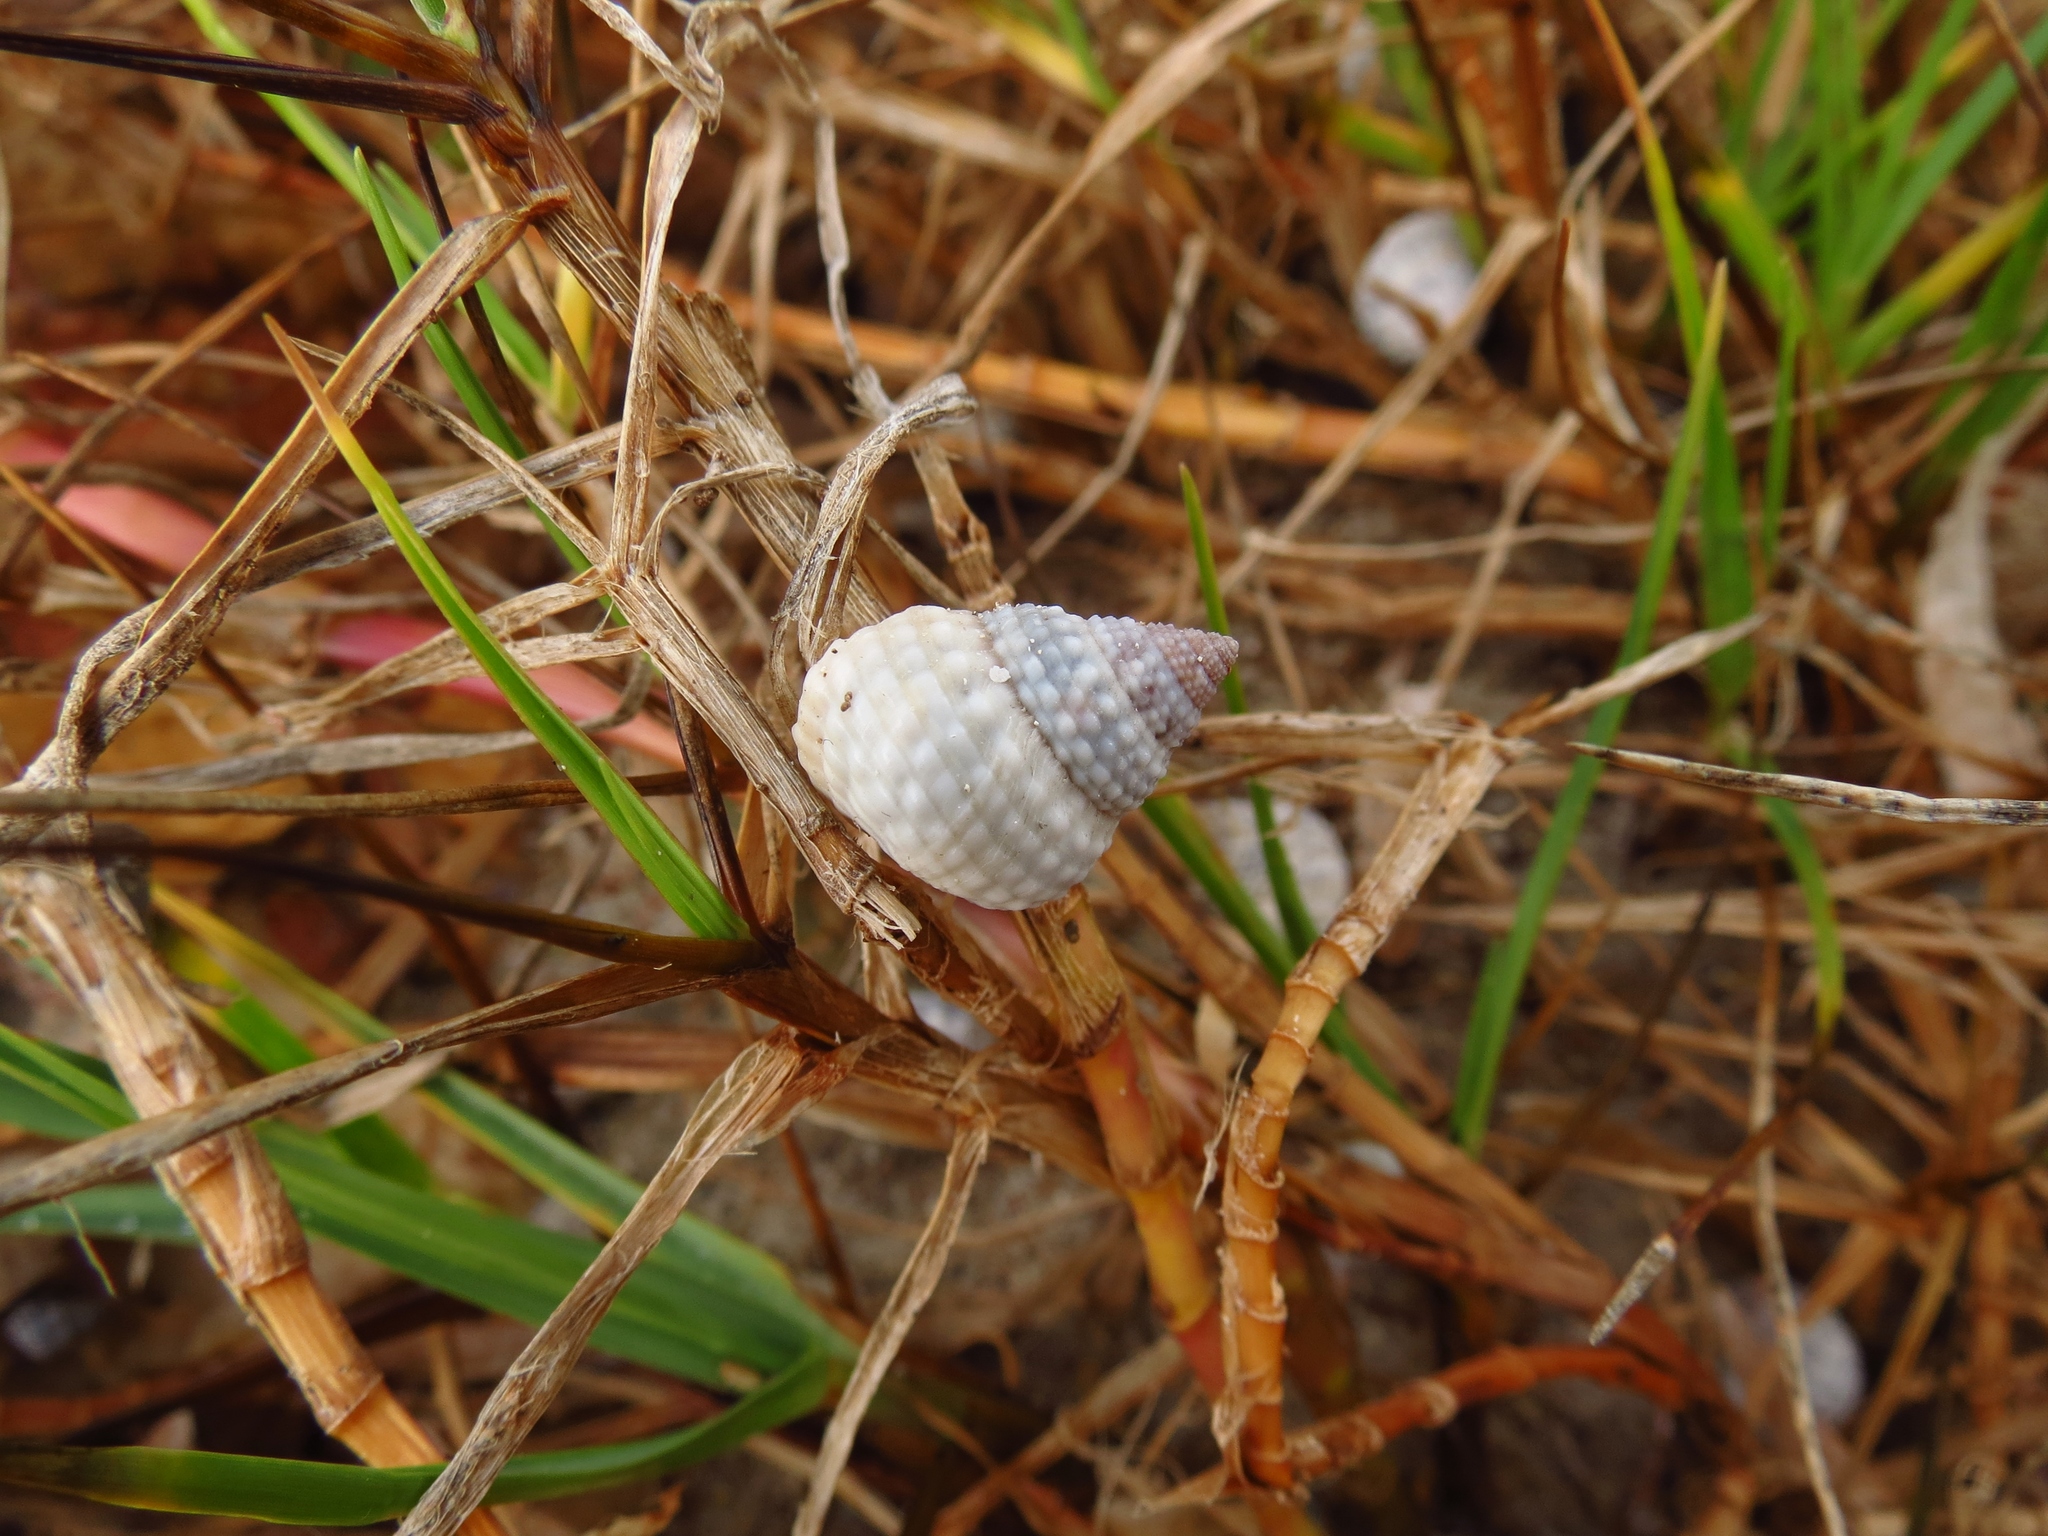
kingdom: Animalia
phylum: Mollusca
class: Gastropoda
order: Littorinimorpha
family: Littorinidae
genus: Cenchritis
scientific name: Cenchritis muricatus
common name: Beaded periwinkle
